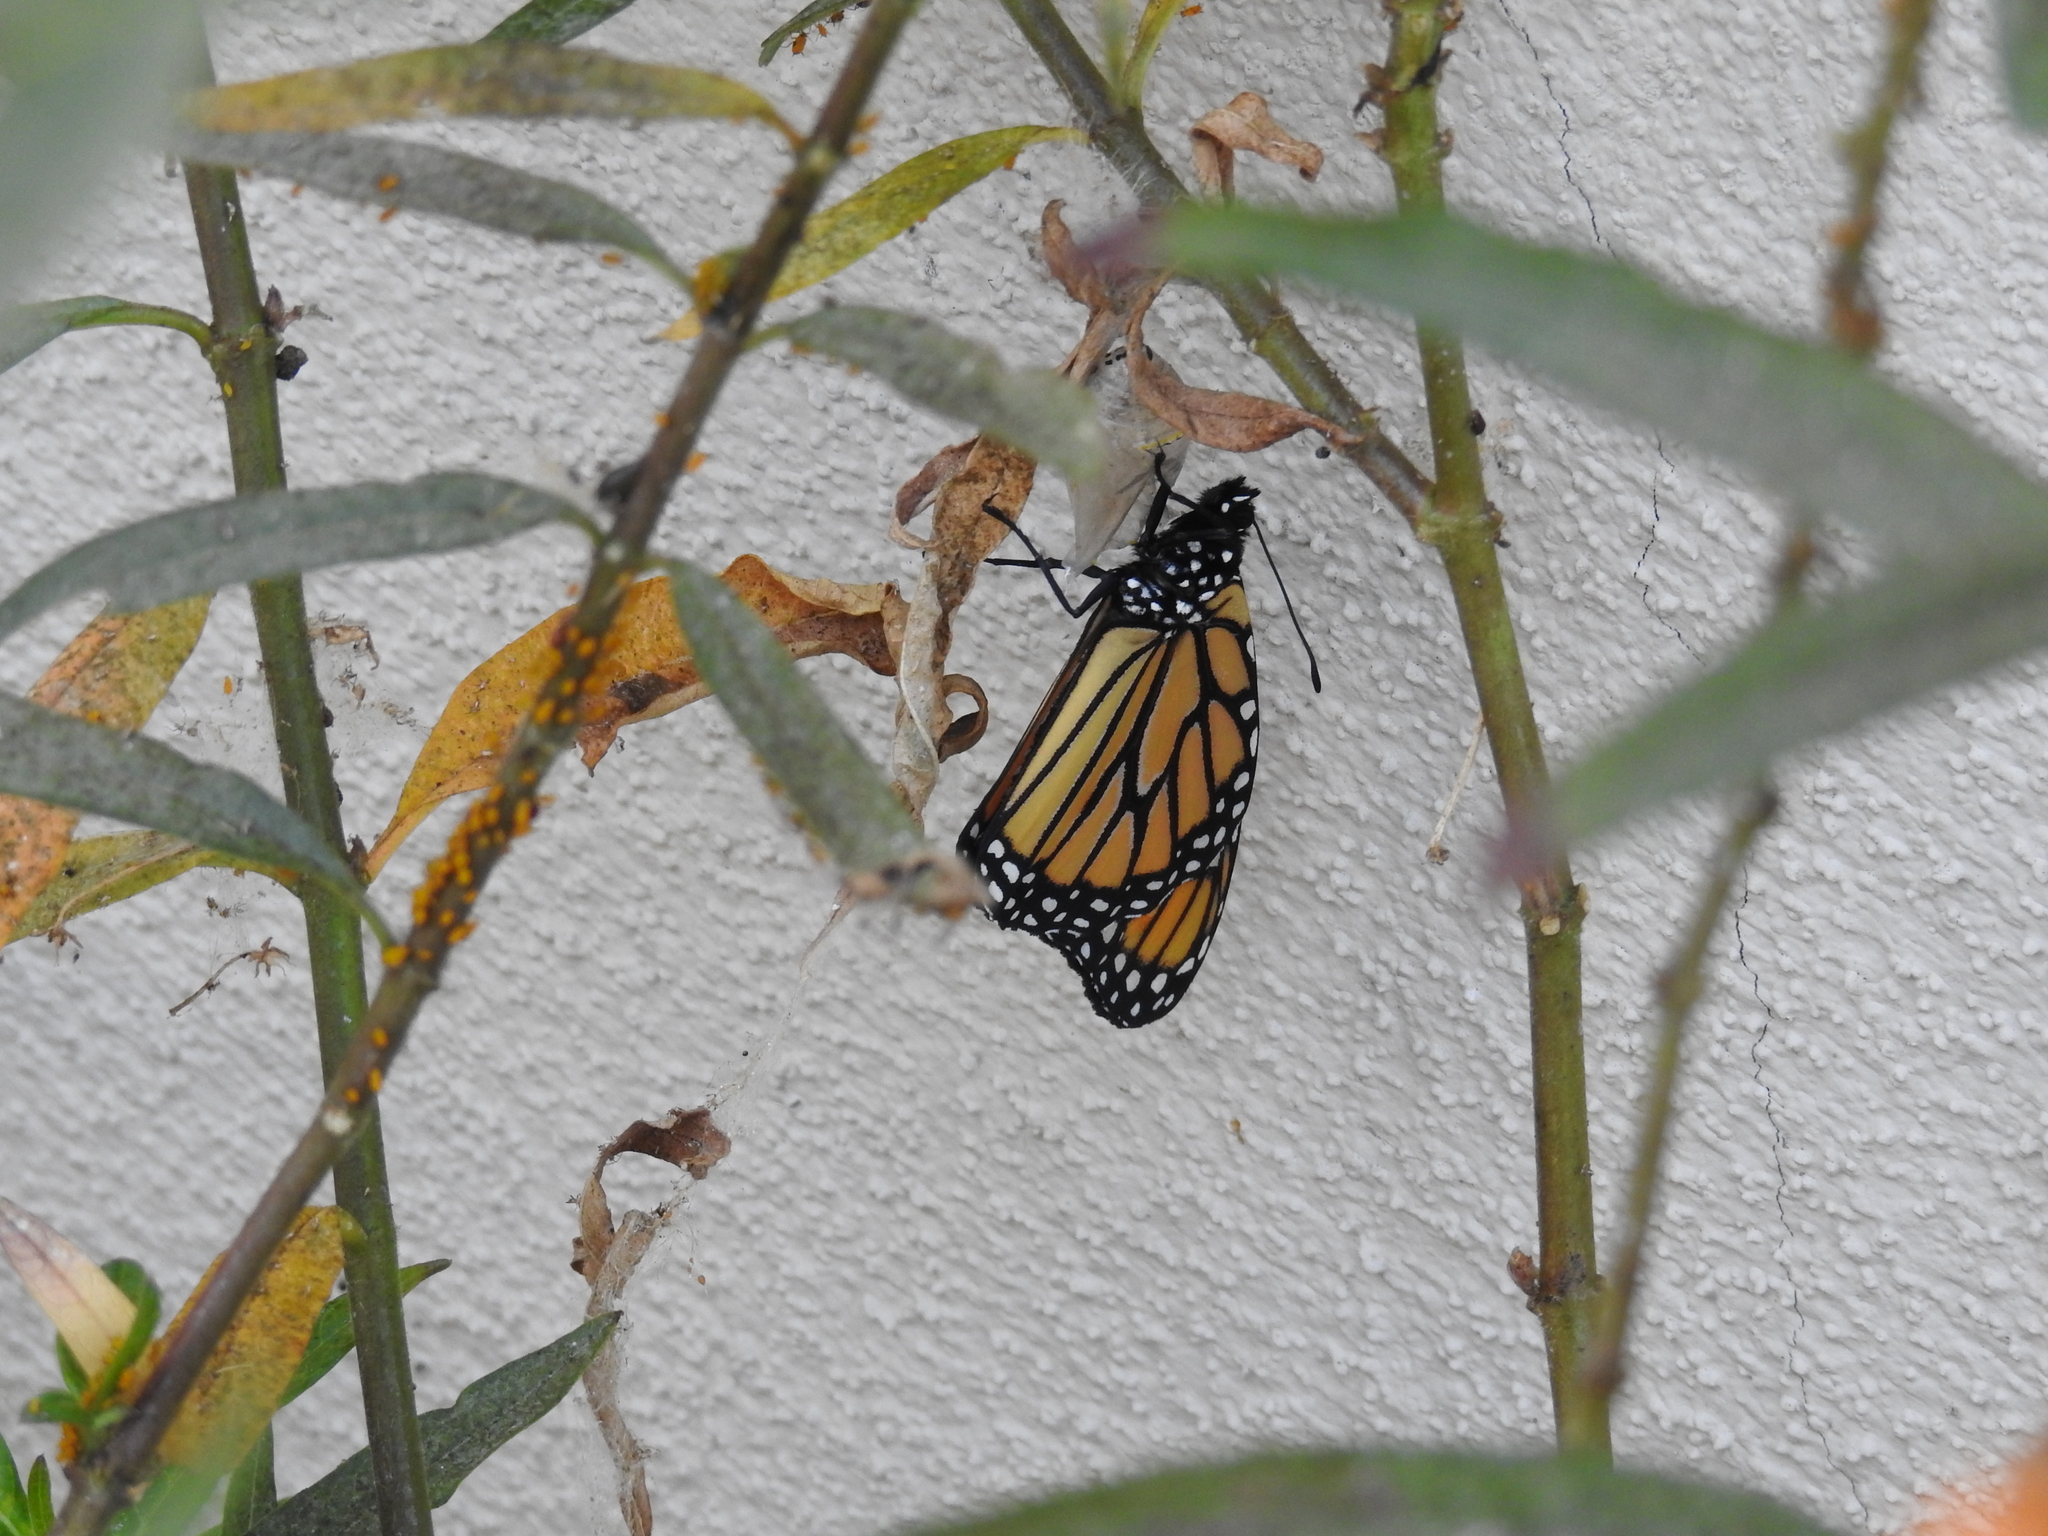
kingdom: Animalia
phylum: Arthropoda
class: Insecta
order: Lepidoptera
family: Nymphalidae
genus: Danaus
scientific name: Danaus plexippus
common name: Monarch
